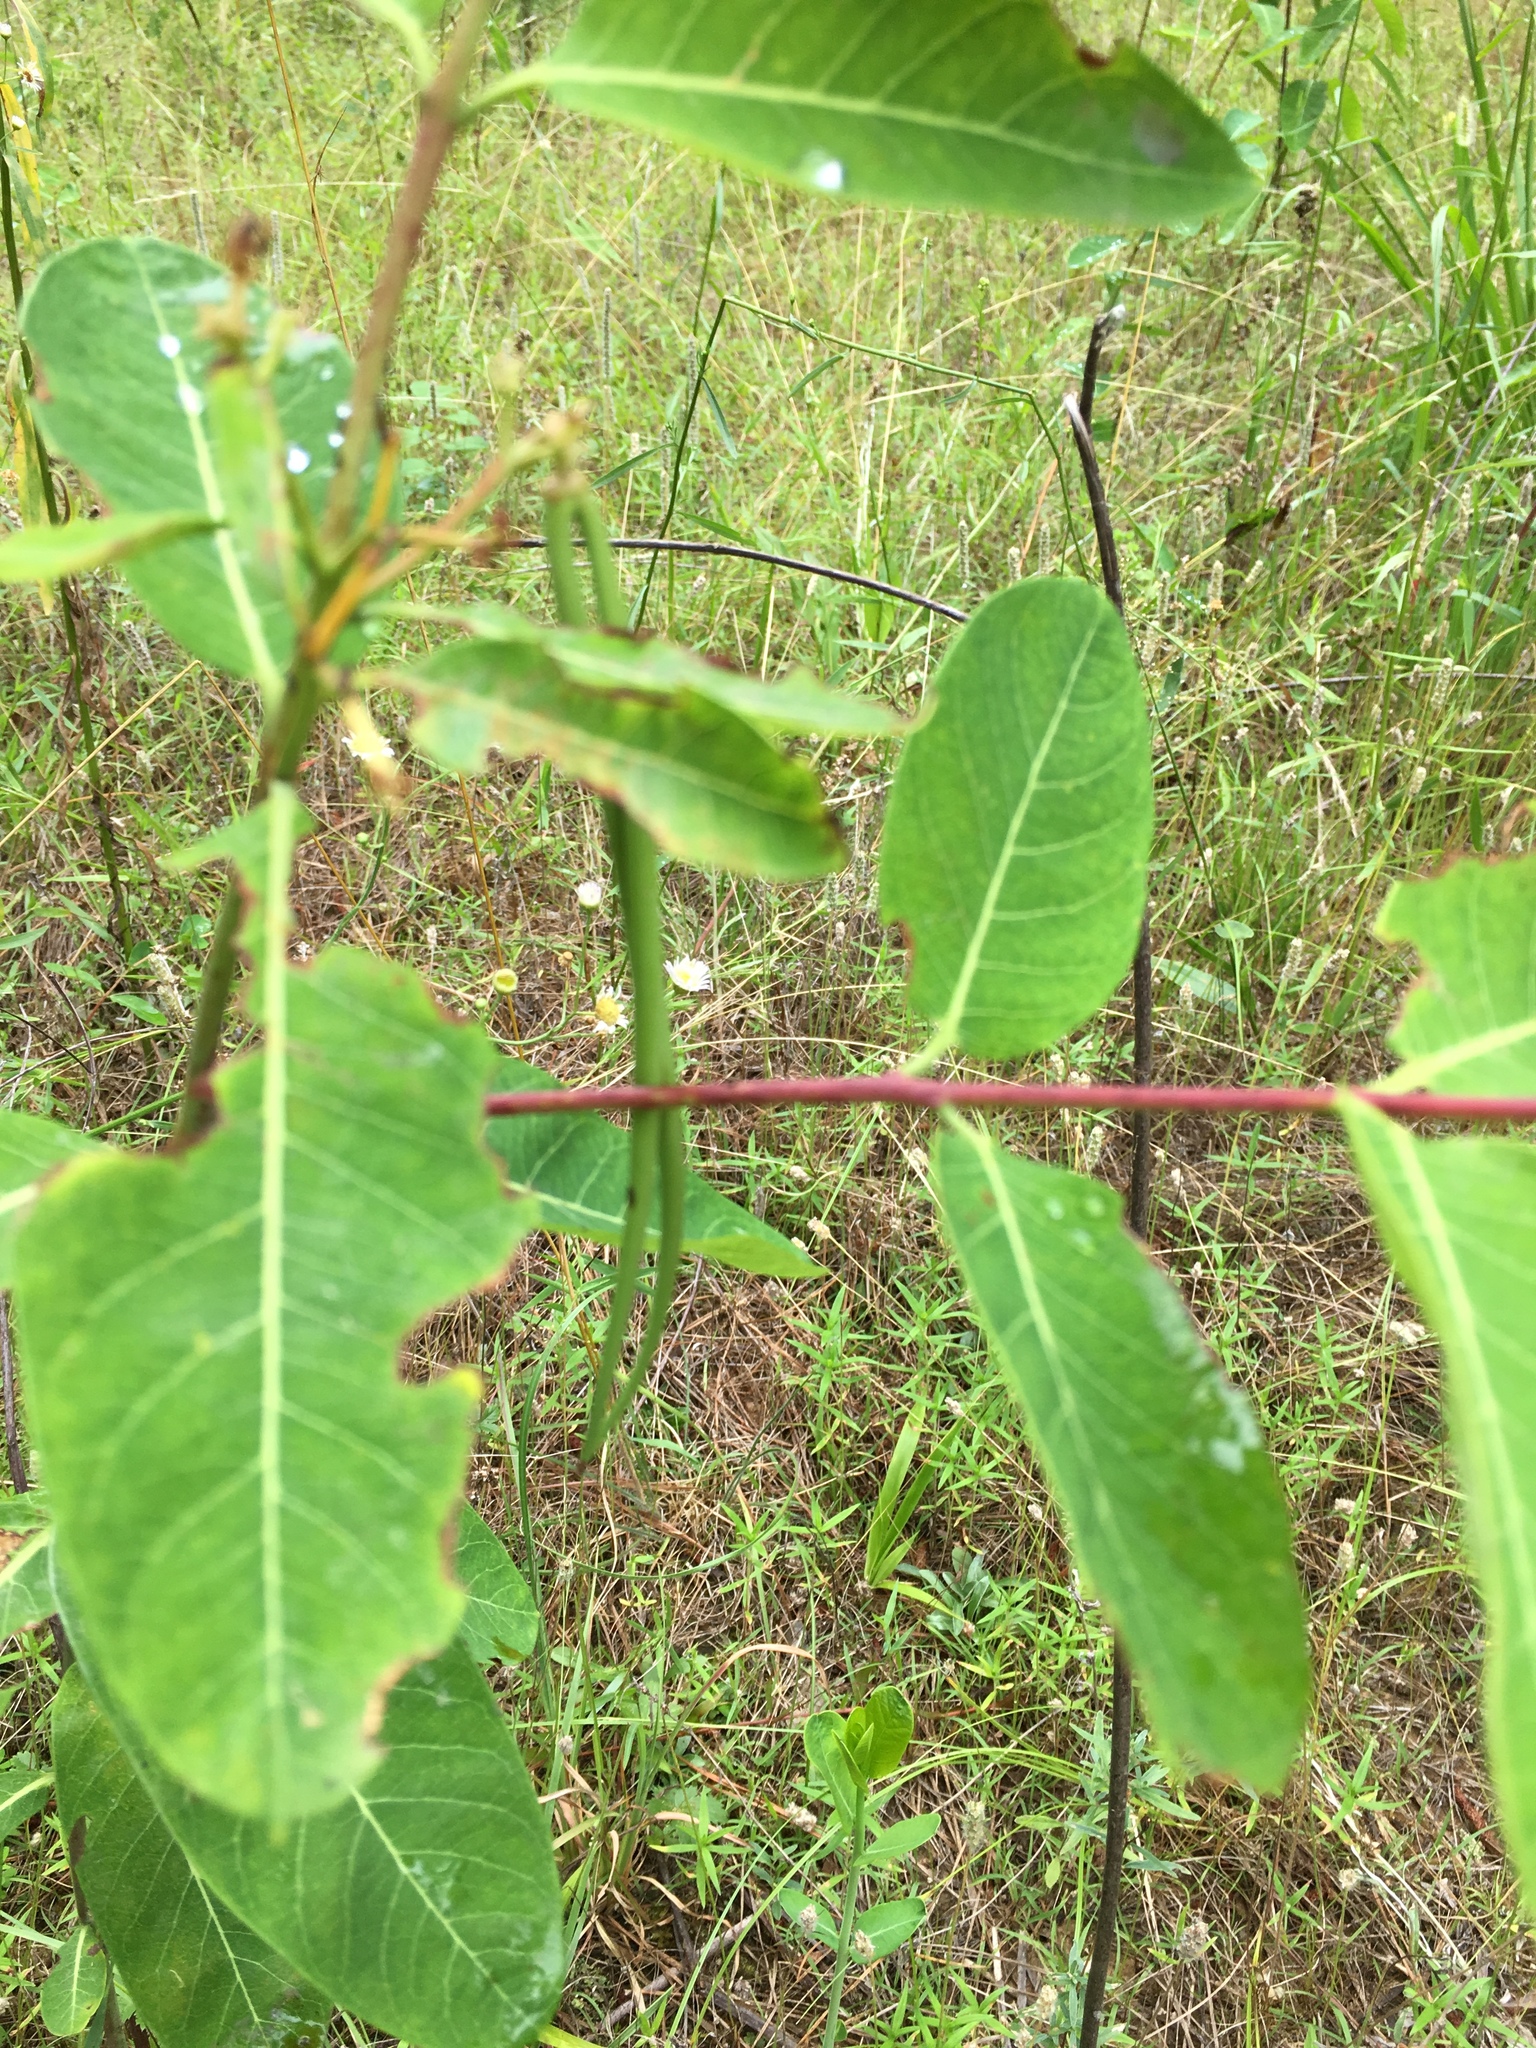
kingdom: Plantae
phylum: Tracheophyta
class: Magnoliopsida
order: Gentianales
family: Apocynaceae
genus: Apocynum
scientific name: Apocynum cannabinum
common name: Hemp dogbane
